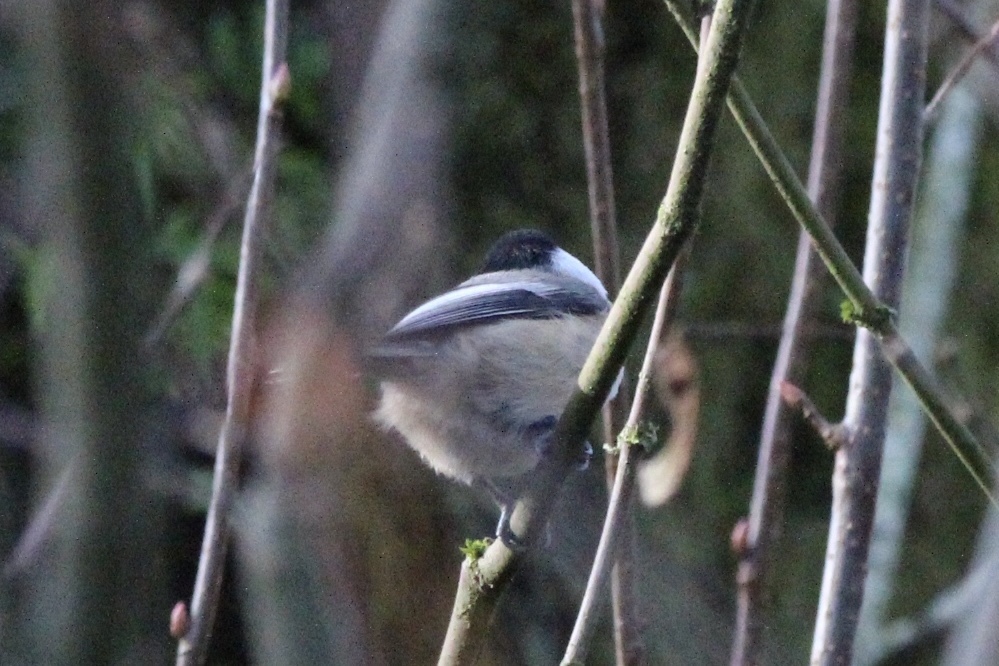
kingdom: Animalia
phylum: Chordata
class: Aves
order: Passeriformes
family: Paridae
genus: Poecile
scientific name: Poecile atricapillus
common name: Black-capped chickadee
